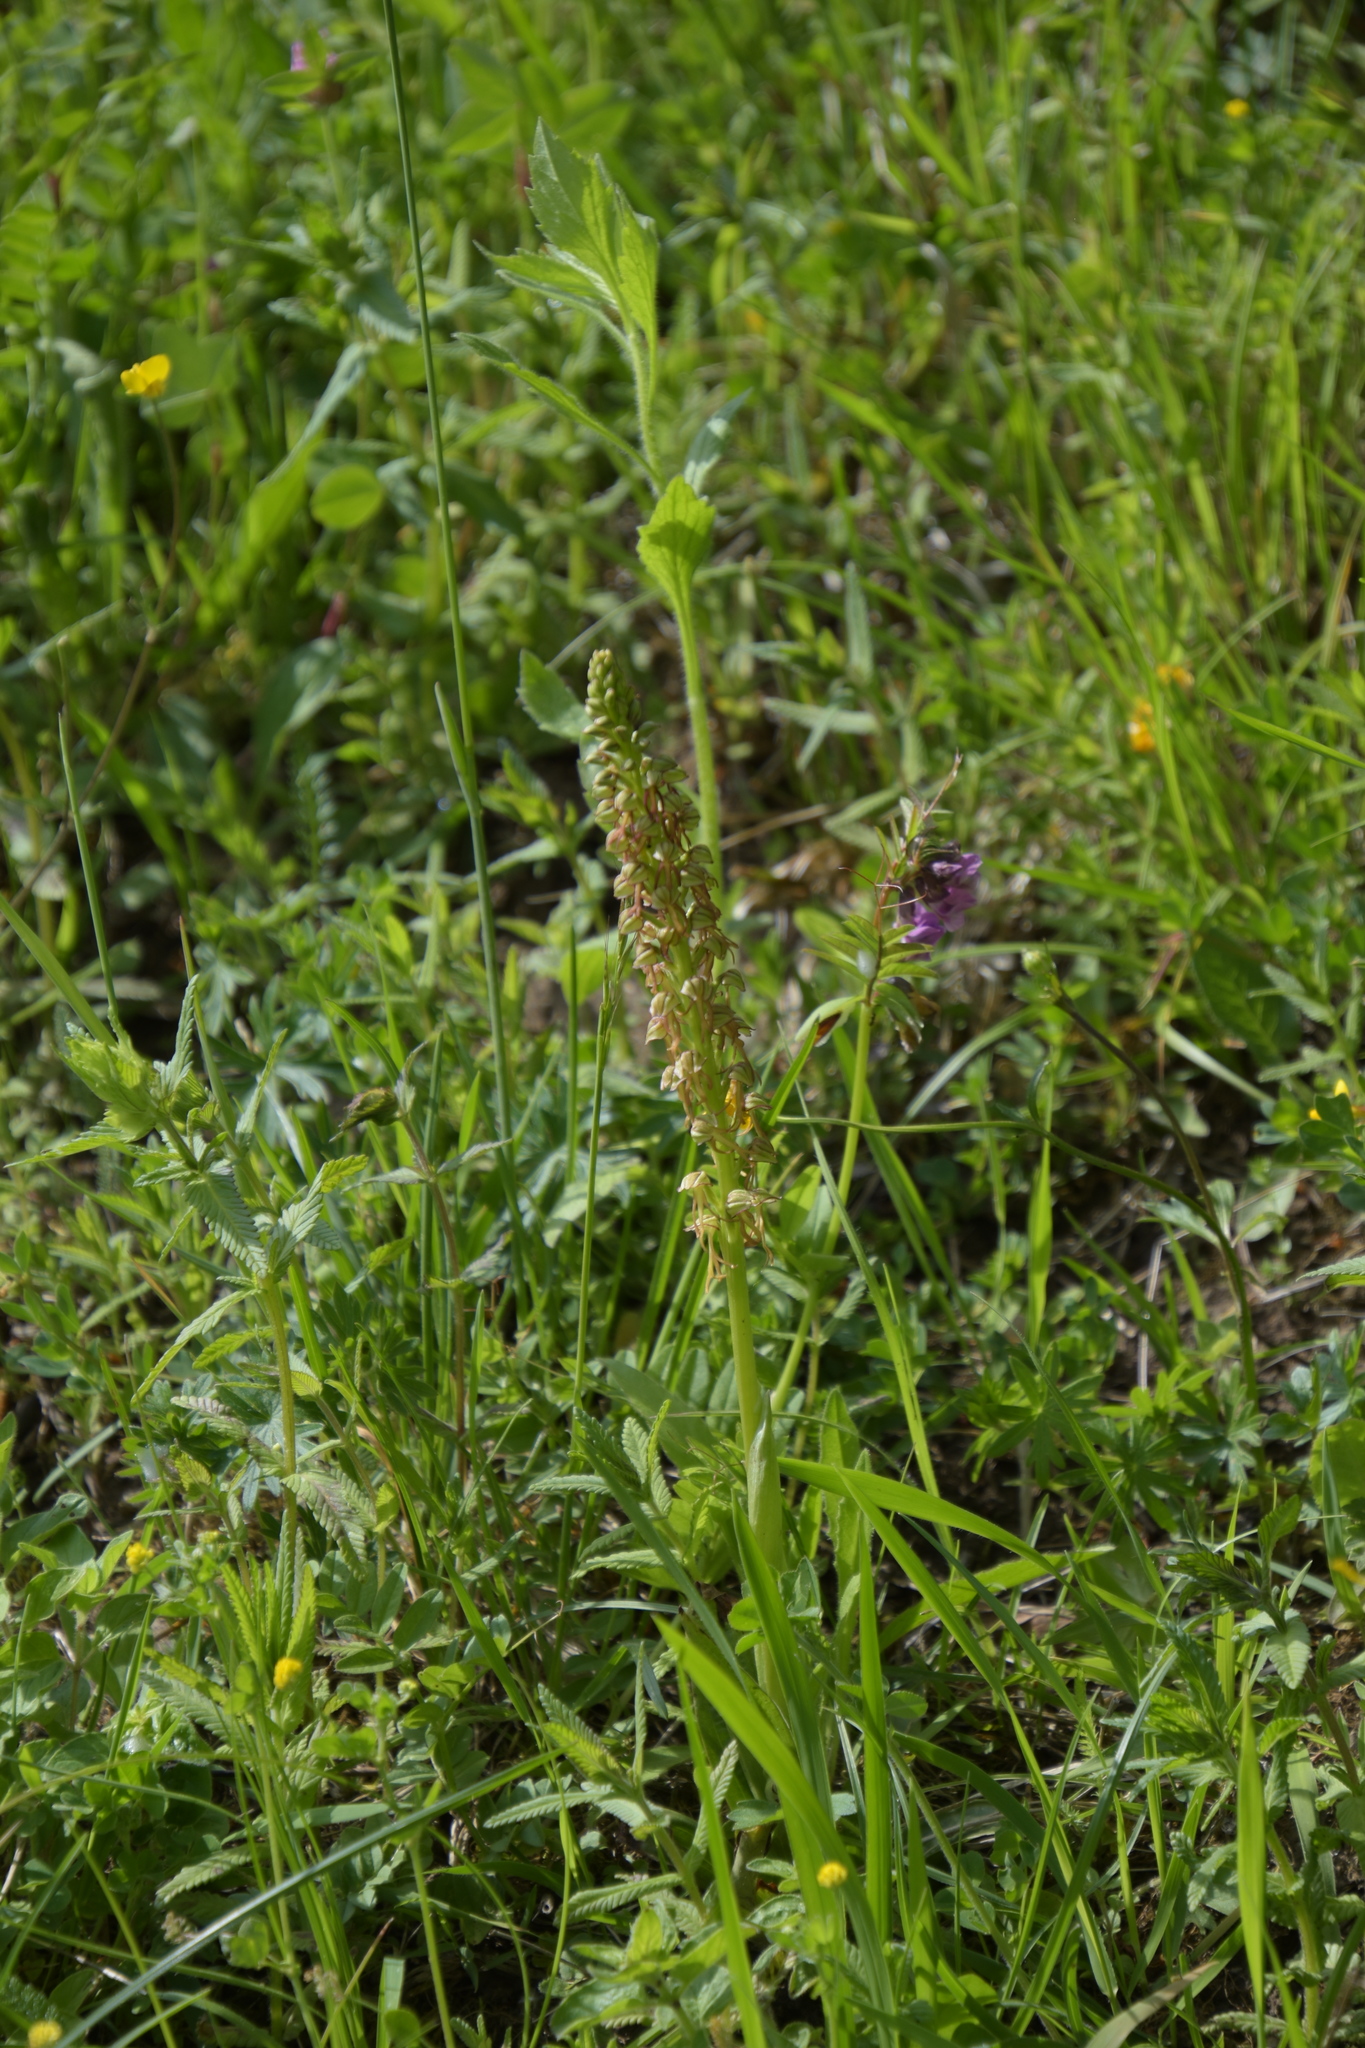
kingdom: Plantae
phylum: Tracheophyta
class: Liliopsida
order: Asparagales
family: Orchidaceae
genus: Orchis
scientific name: Orchis anthropophora
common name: Man orchid
